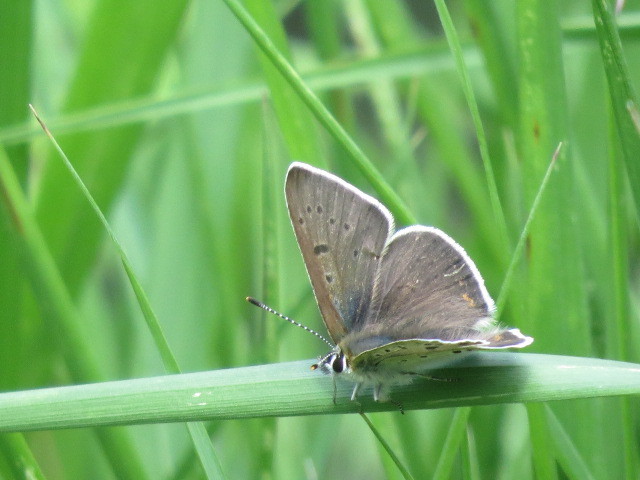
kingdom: Animalia
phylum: Arthropoda
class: Insecta
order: Lepidoptera
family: Lycaenidae
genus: Loweia
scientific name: Loweia tityrus
